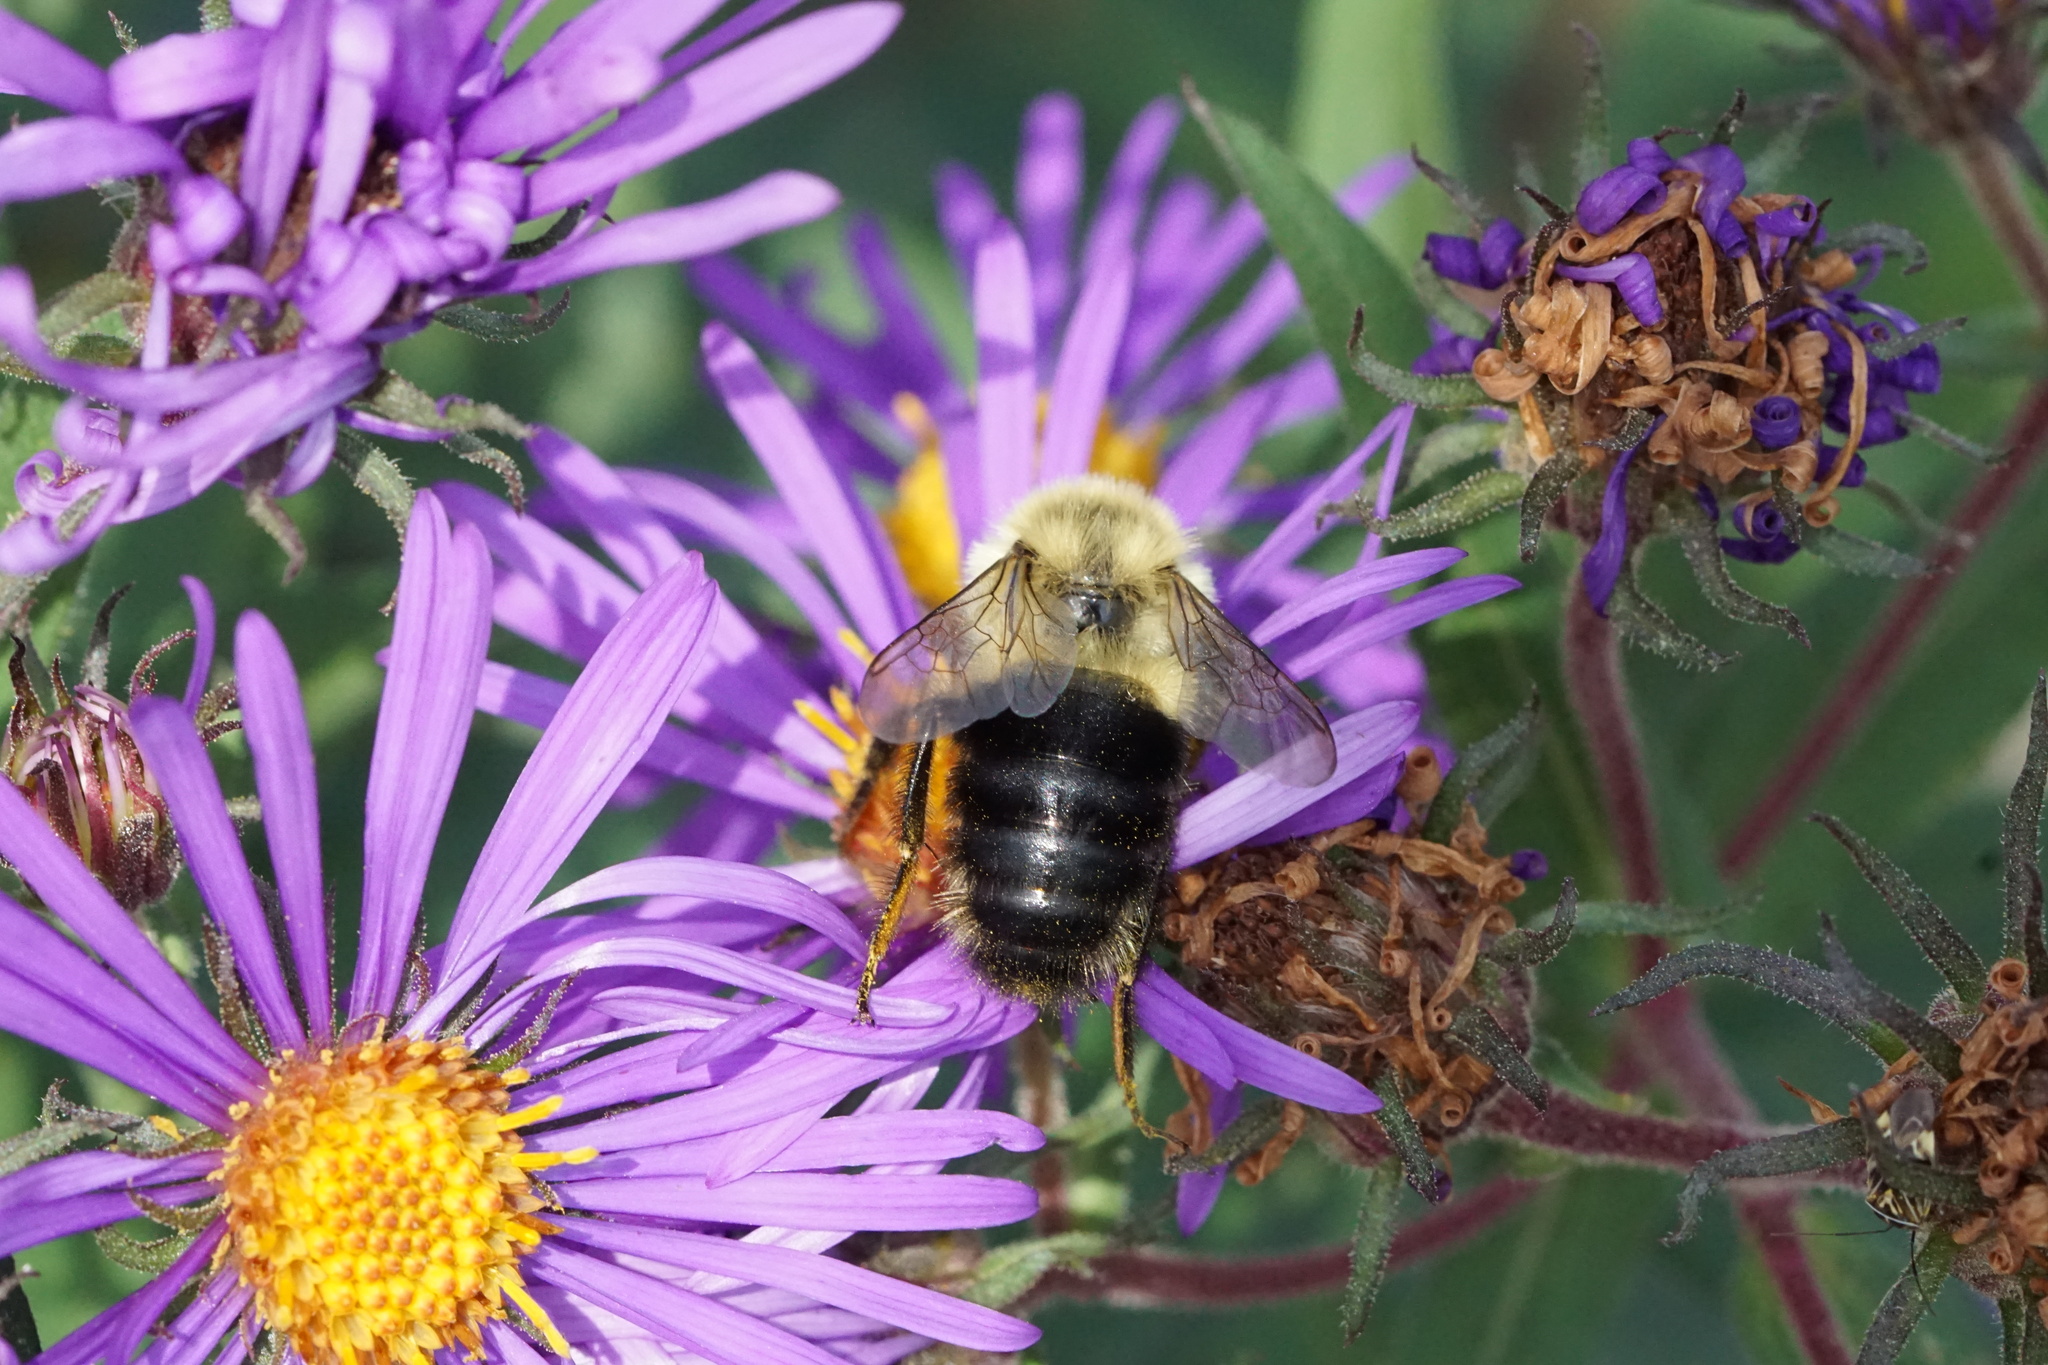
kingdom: Animalia
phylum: Arthropoda
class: Insecta
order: Hymenoptera
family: Apidae
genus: Bombus
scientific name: Bombus impatiens
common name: Common eastern bumble bee
